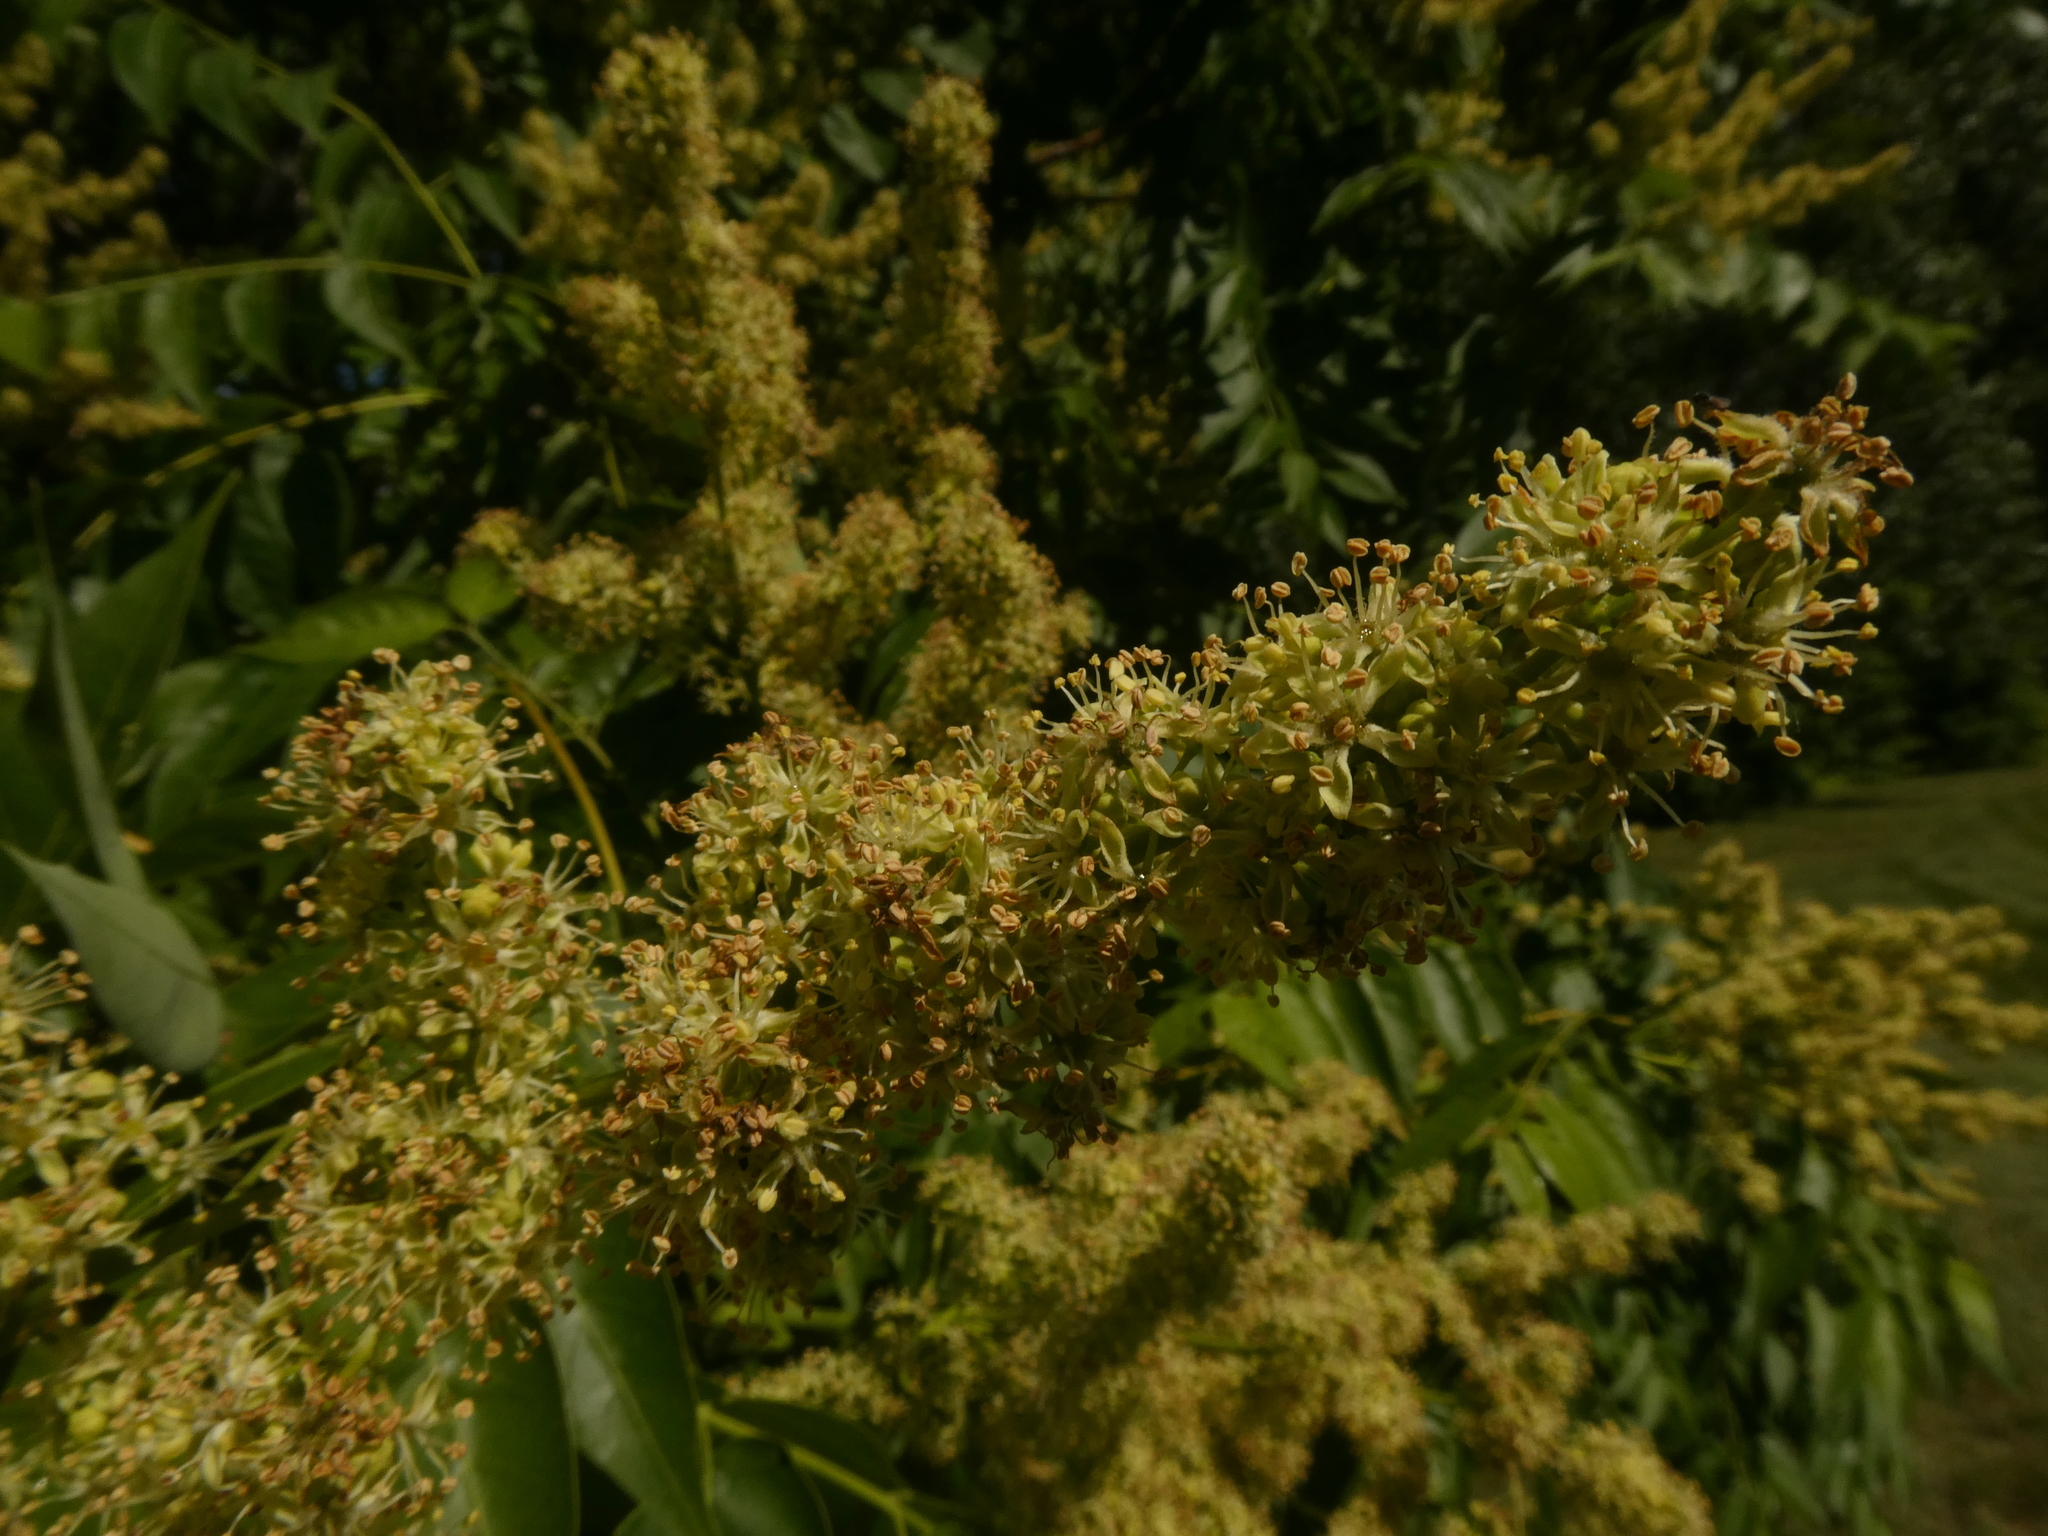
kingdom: Plantae
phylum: Tracheophyta
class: Magnoliopsida
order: Sapindales
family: Simaroubaceae
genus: Ailanthus
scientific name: Ailanthus altissima
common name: Tree-of-heaven
